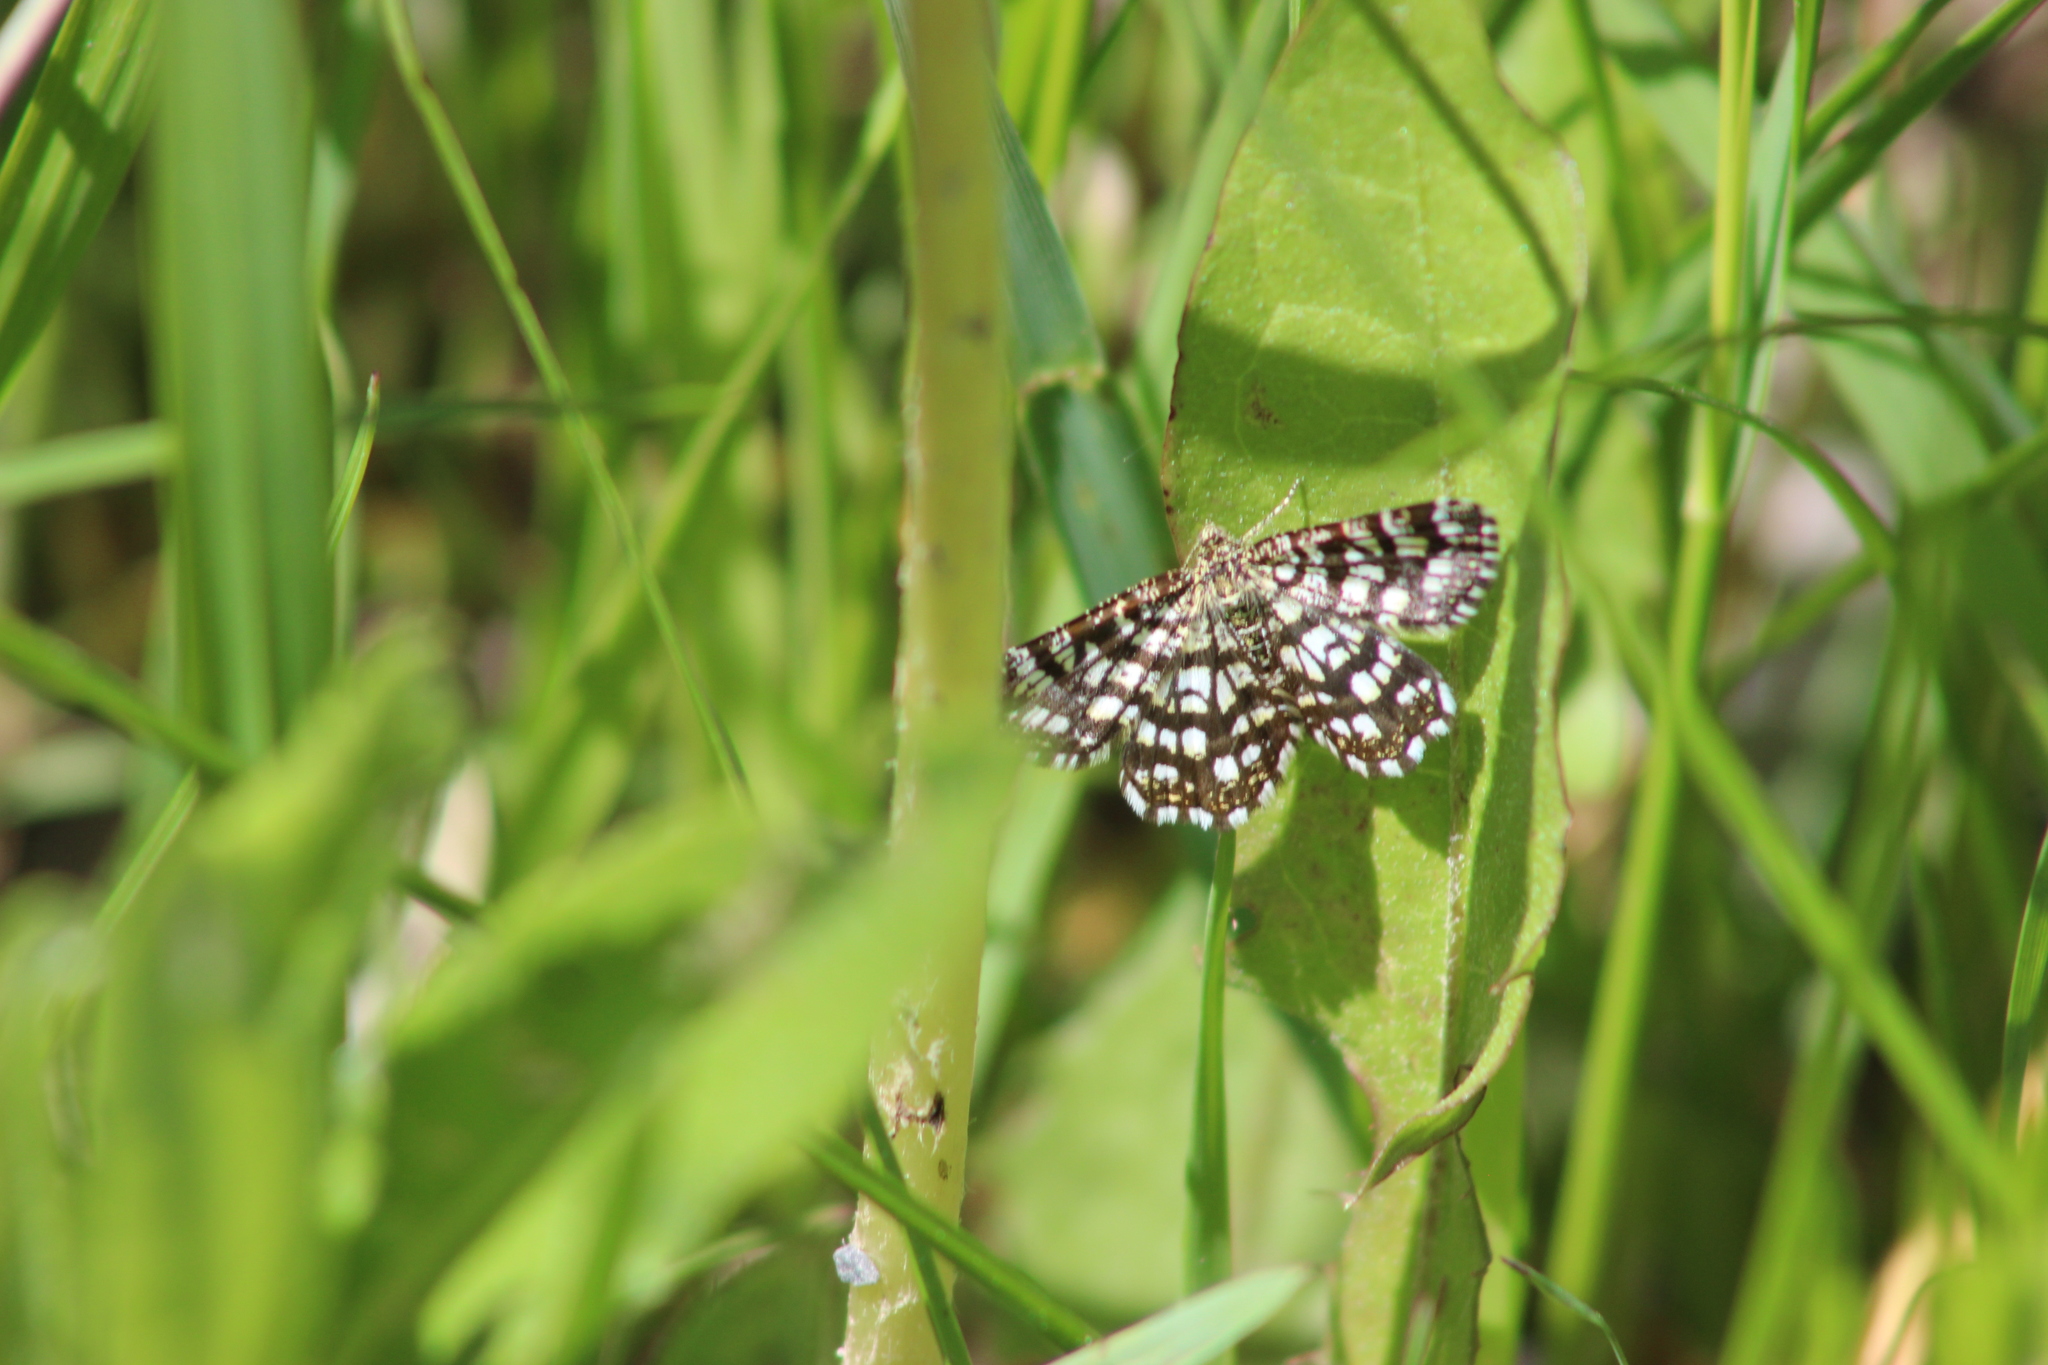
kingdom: Animalia
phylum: Arthropoda
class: Insecta
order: Lepidoptera
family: Geometridae
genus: Chiasmia
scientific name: Chiasmia clathrata
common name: Latticed heath
